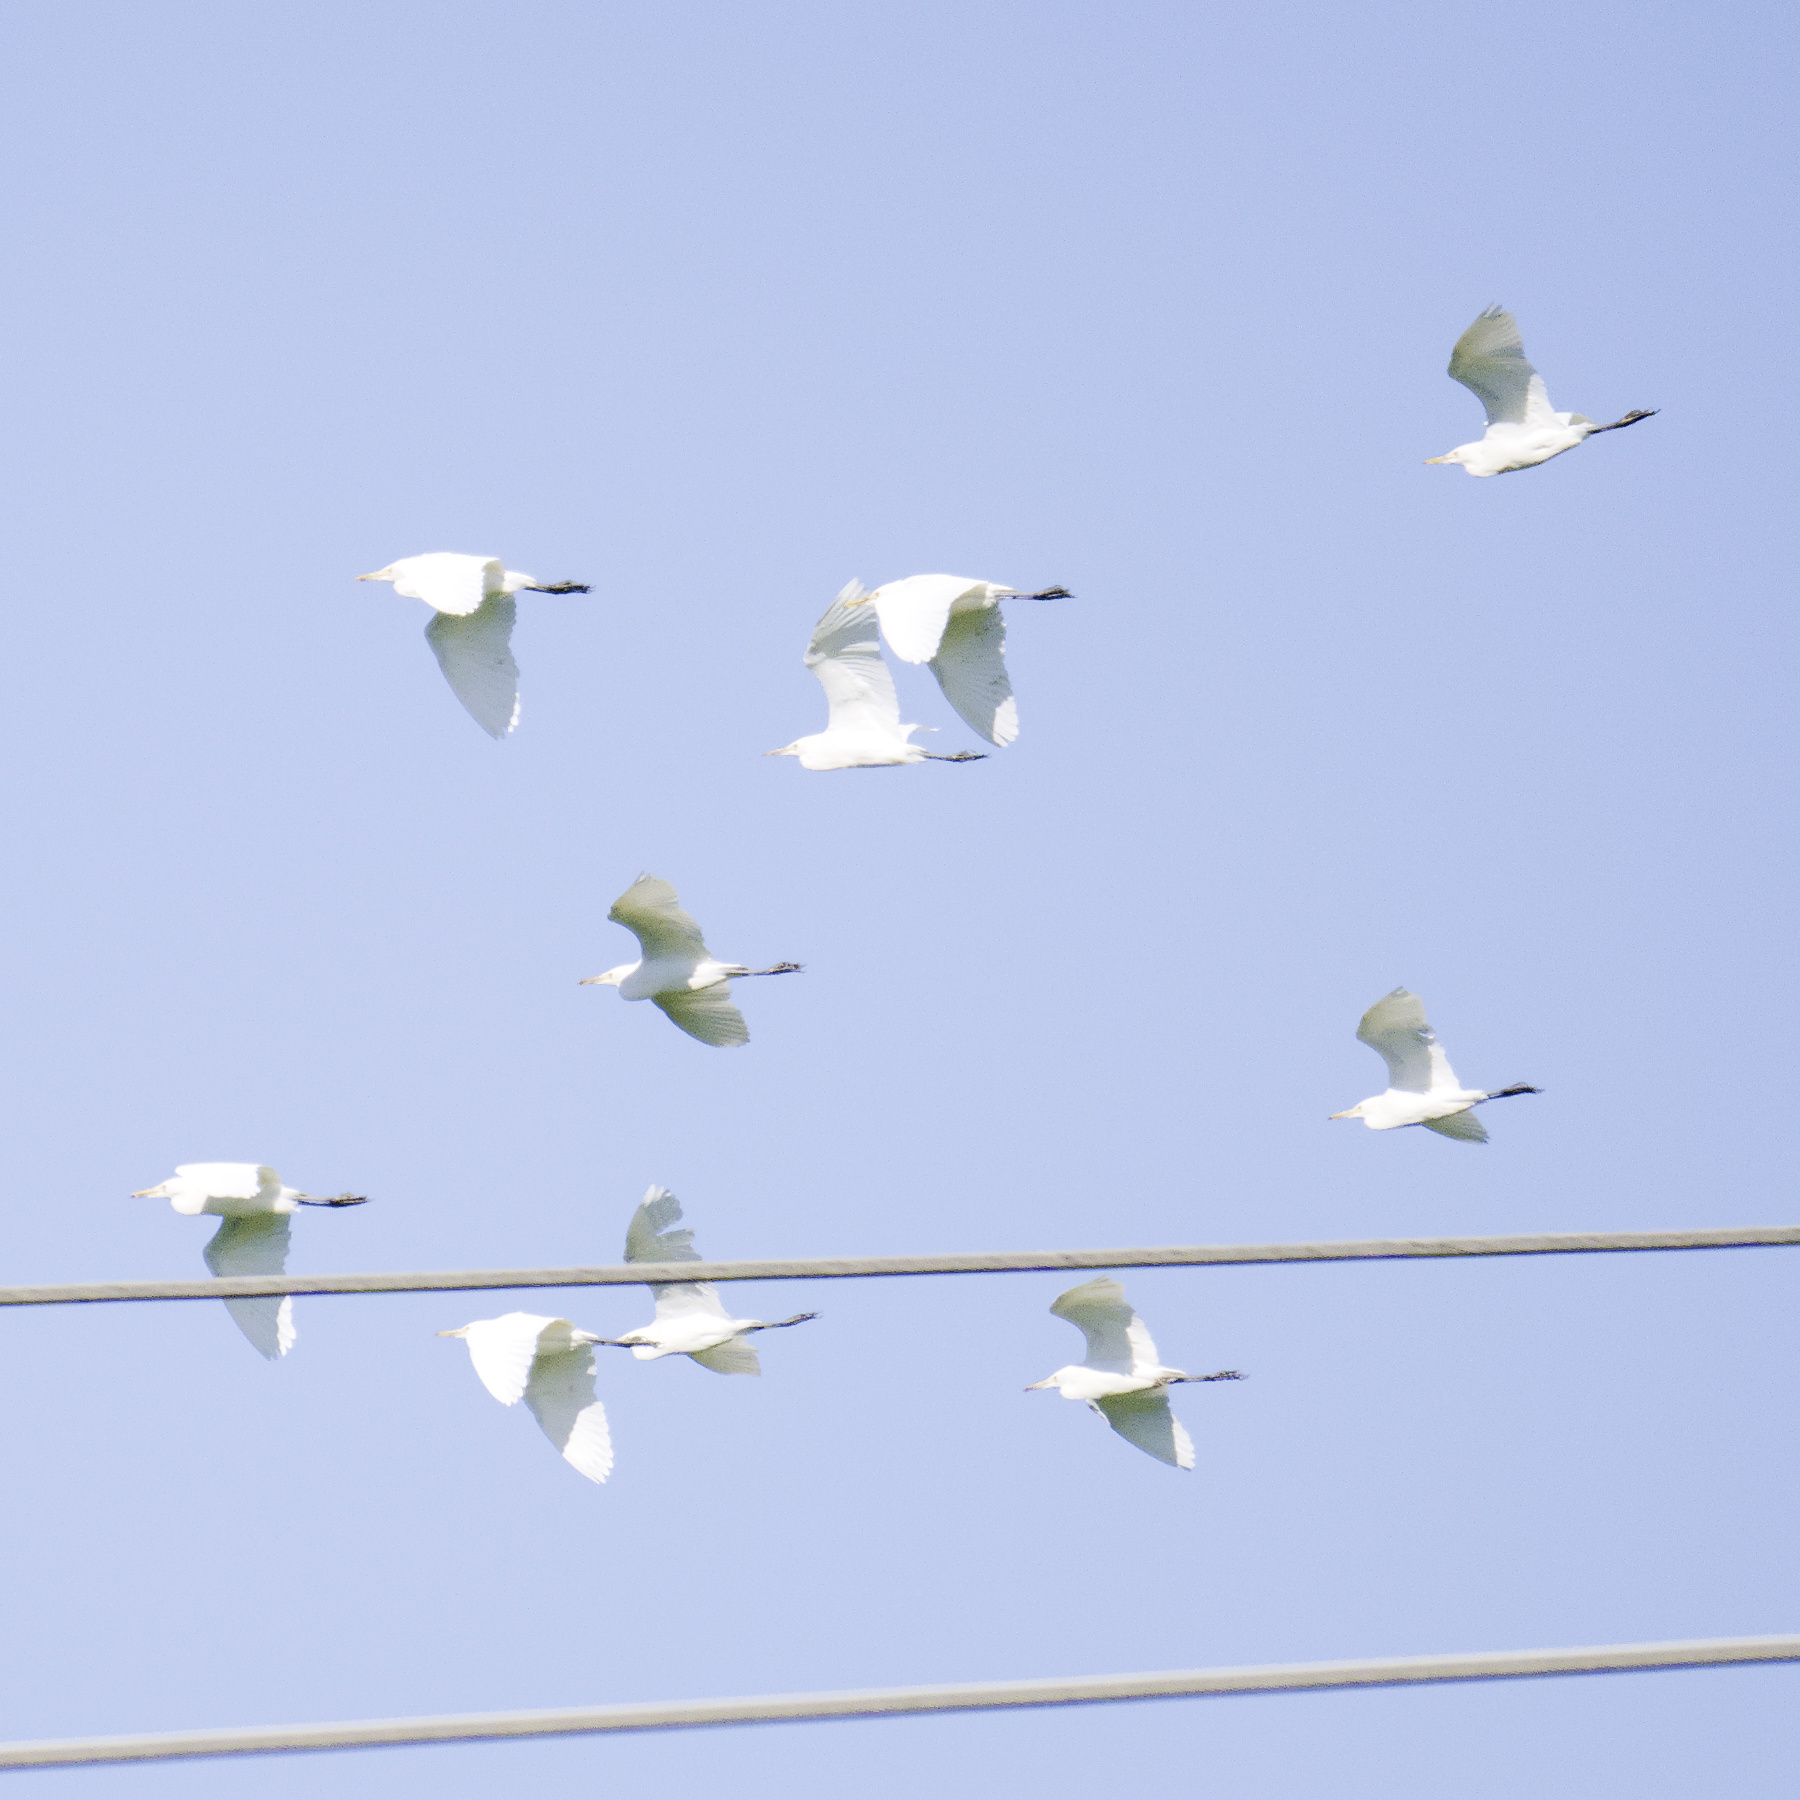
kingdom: Animalia
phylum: Chordata
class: Aves
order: Pelecaniformes
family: Ardeidae
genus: Bubulcus
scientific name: Bubulcus coromandus
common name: Eastern cattle egret
